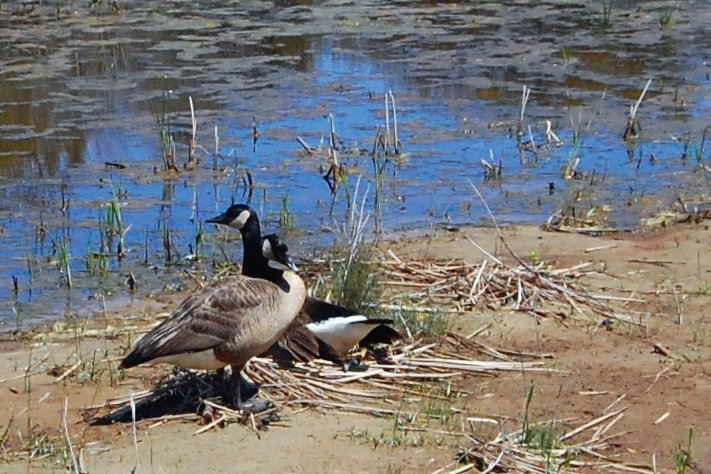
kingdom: Animalia
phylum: Chordata
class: Aves
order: Anseriformes
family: Anatidae
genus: Branta
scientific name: Branta canadensis
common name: Canada goose
